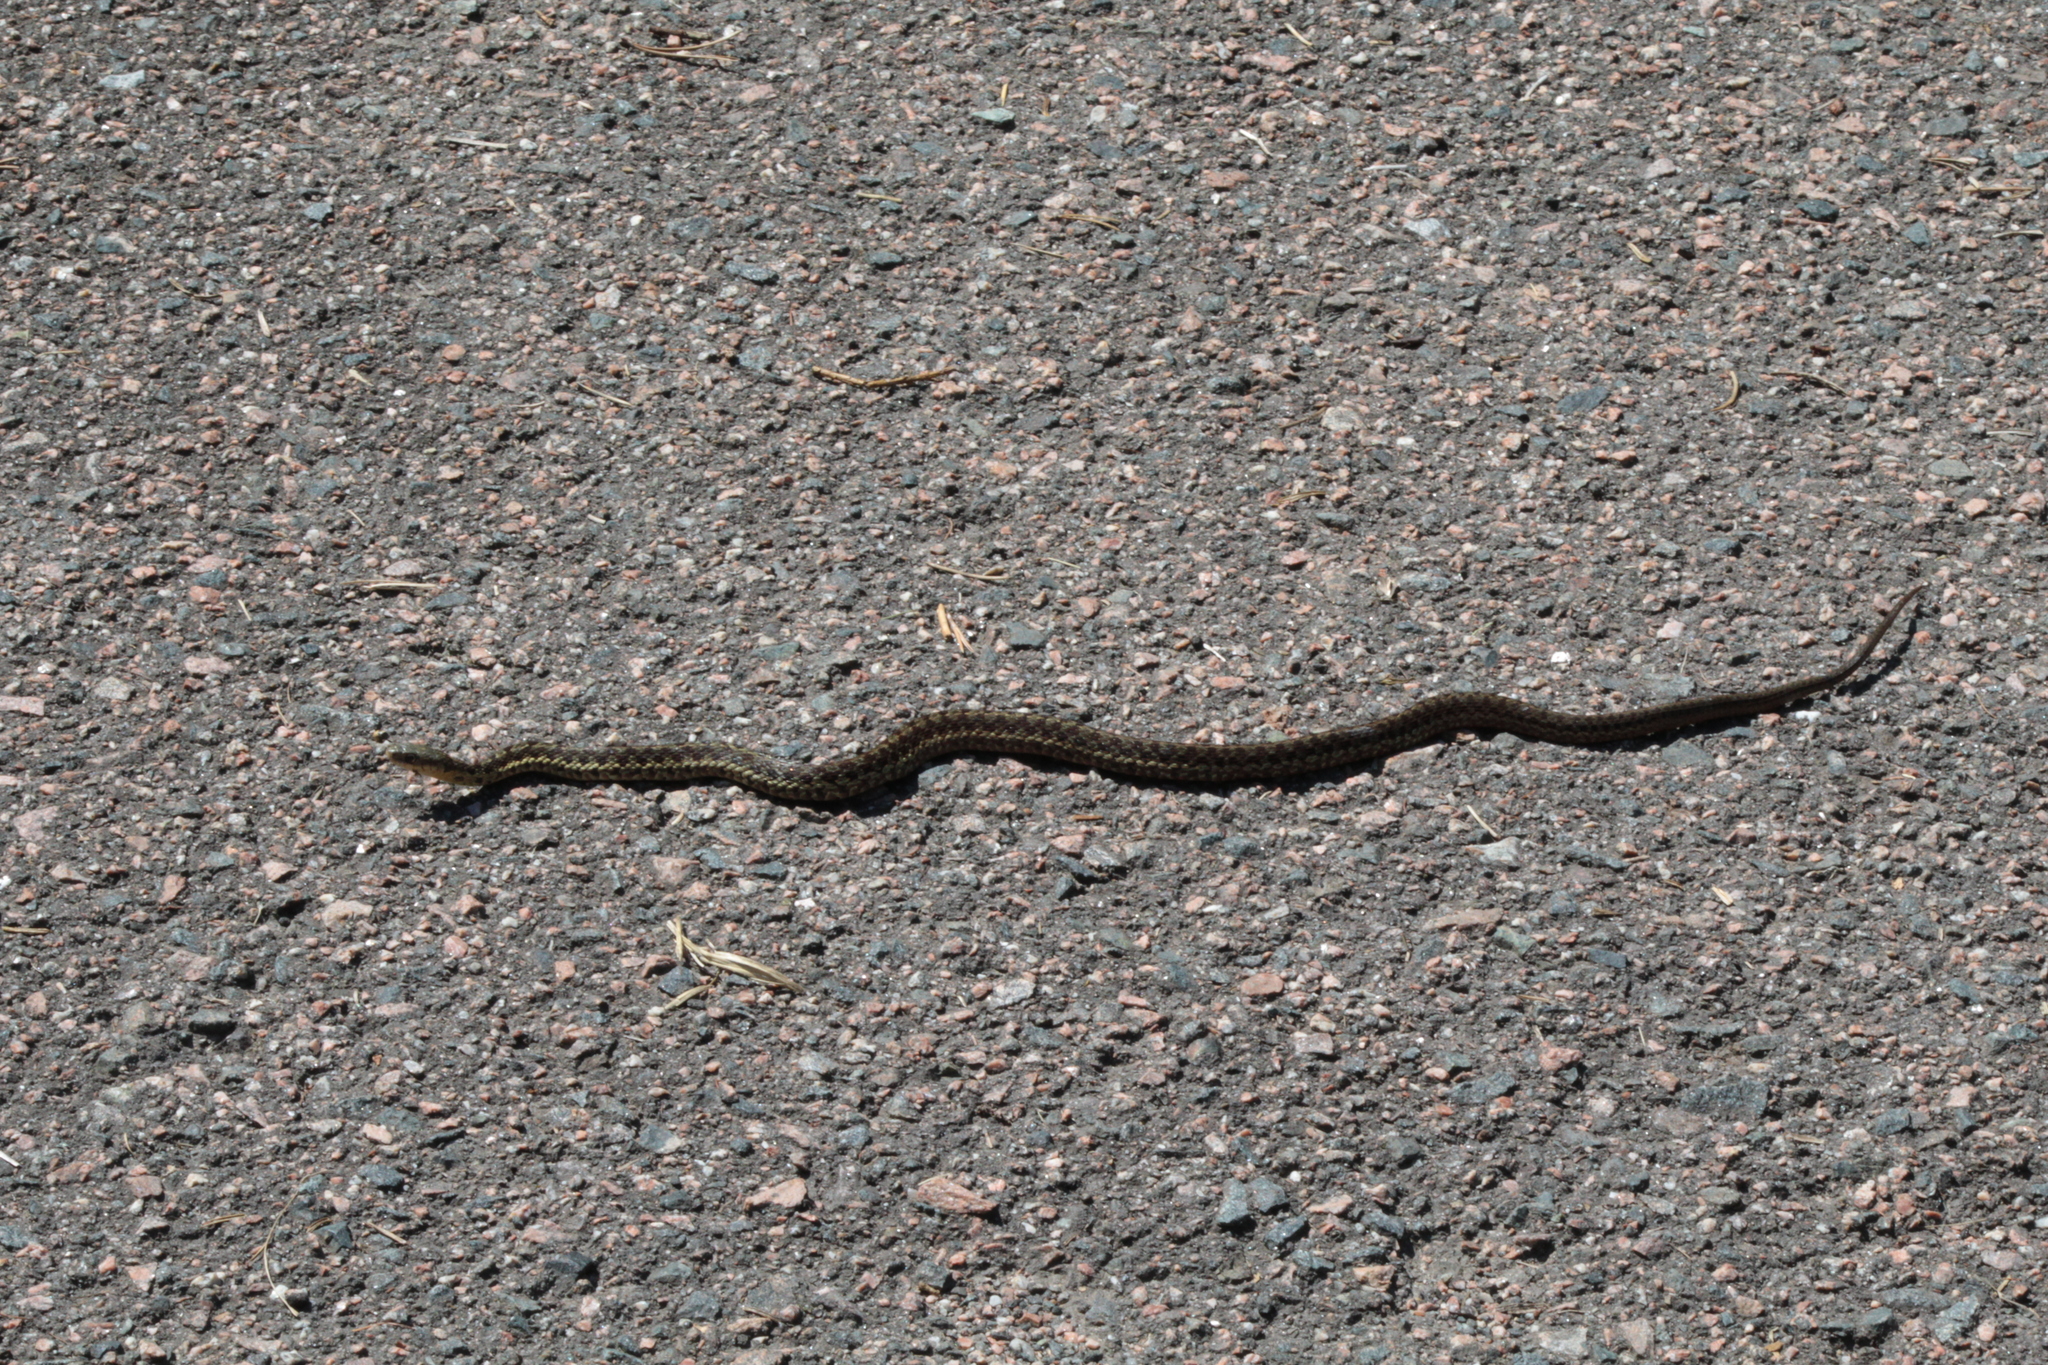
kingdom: Animalia
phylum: Chordata
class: Squamata
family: Colubridae
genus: Thamnophis
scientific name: Thamnophis sirtalis
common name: Common garter snake
